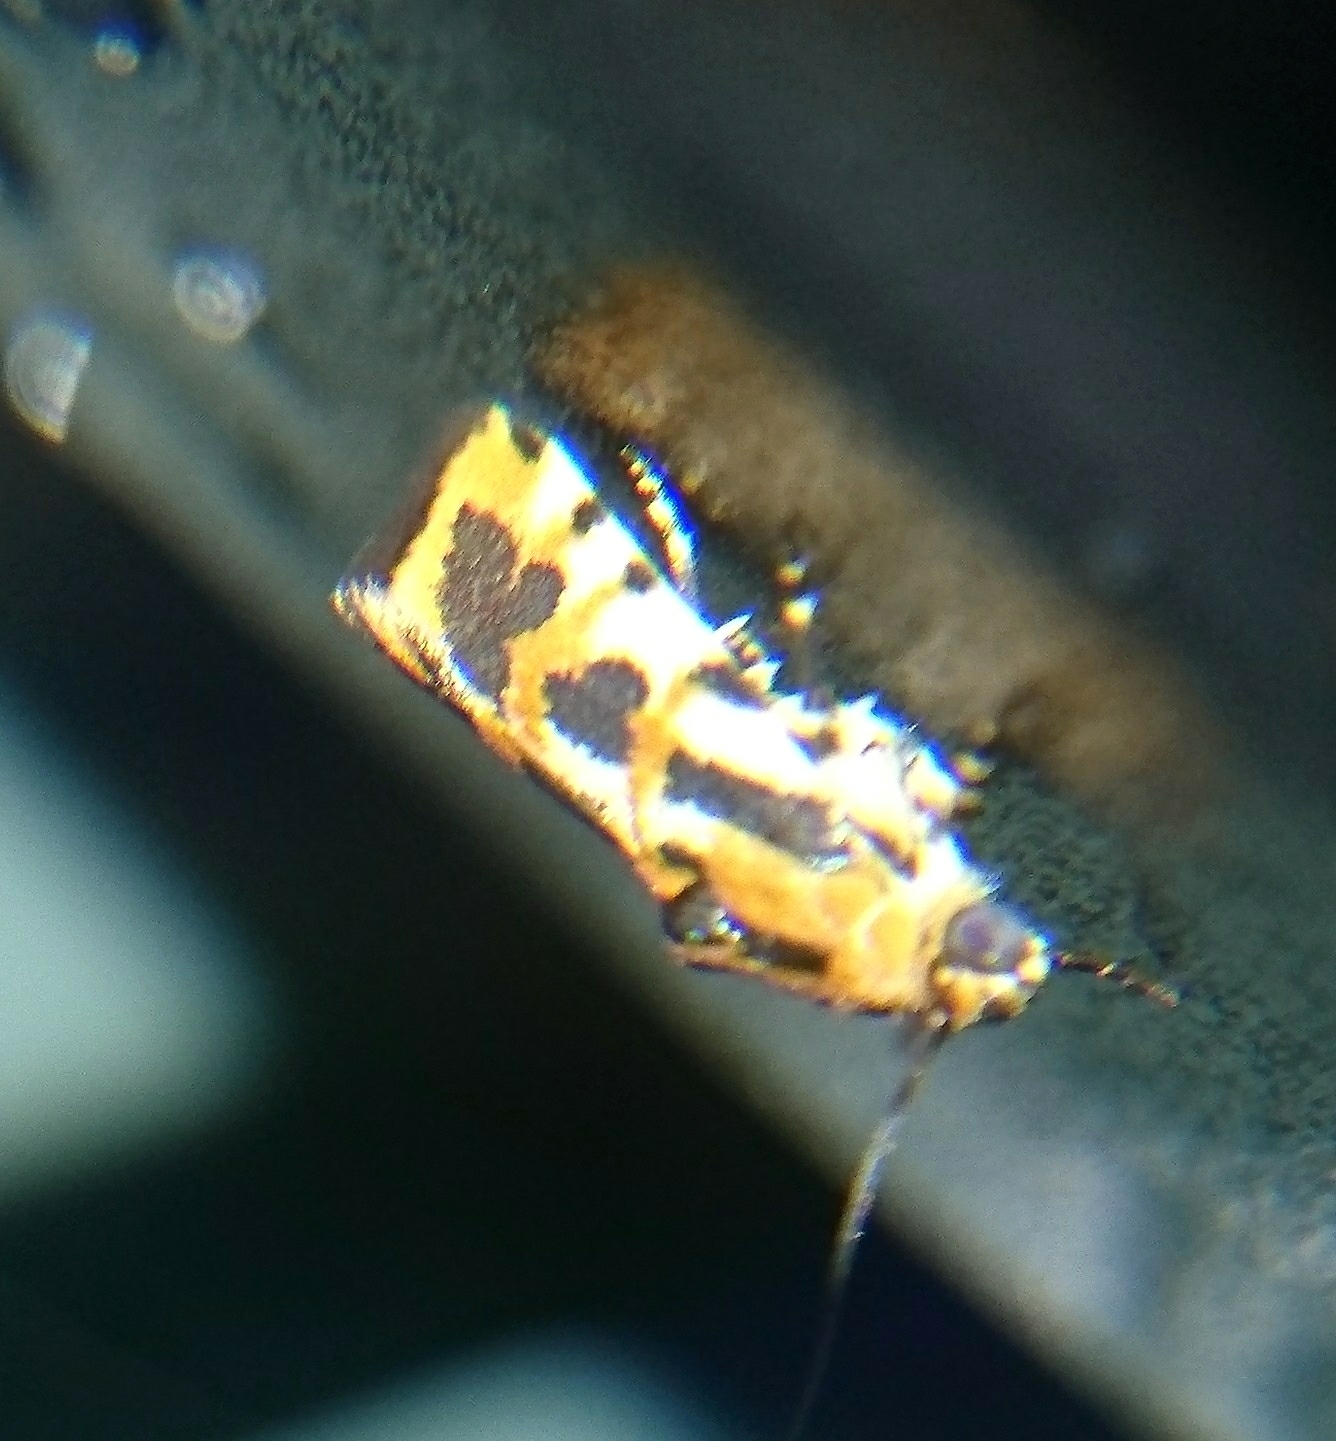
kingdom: Animalia
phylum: Arthropoda
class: Insecta
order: Lepidoptera
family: Noctuidae
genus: Acontia
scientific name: Acontia leo
